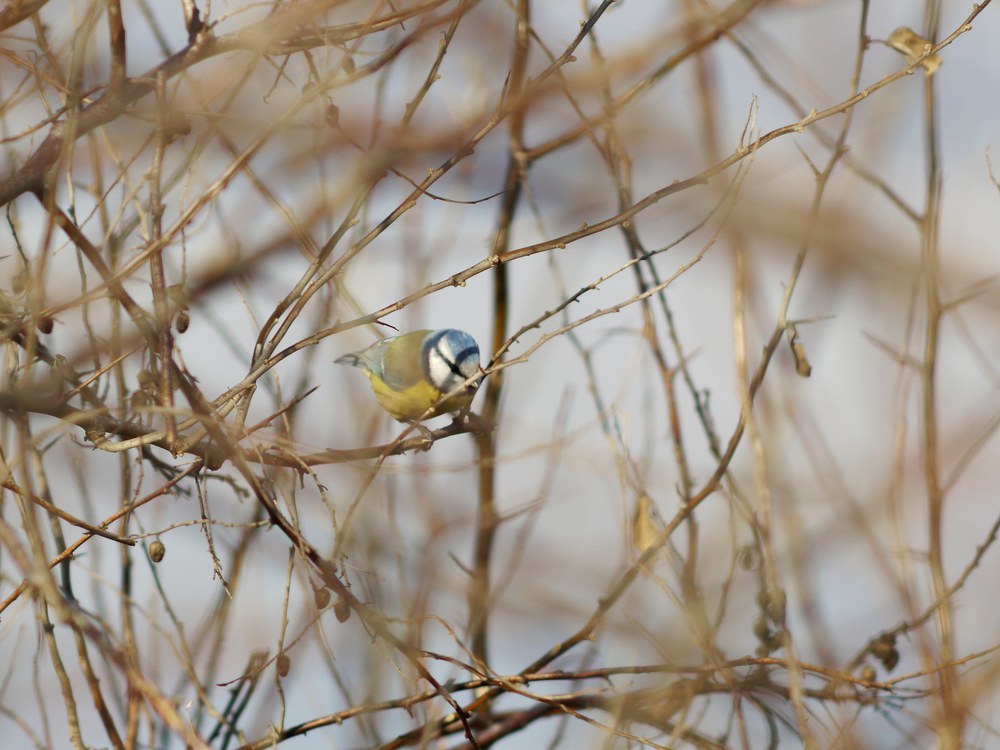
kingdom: Animalia
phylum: Chordata
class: Aves
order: Passeriformes
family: Paridae
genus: Cyanistes
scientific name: Cyanistes caeruleus
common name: Eurasian blue tit
